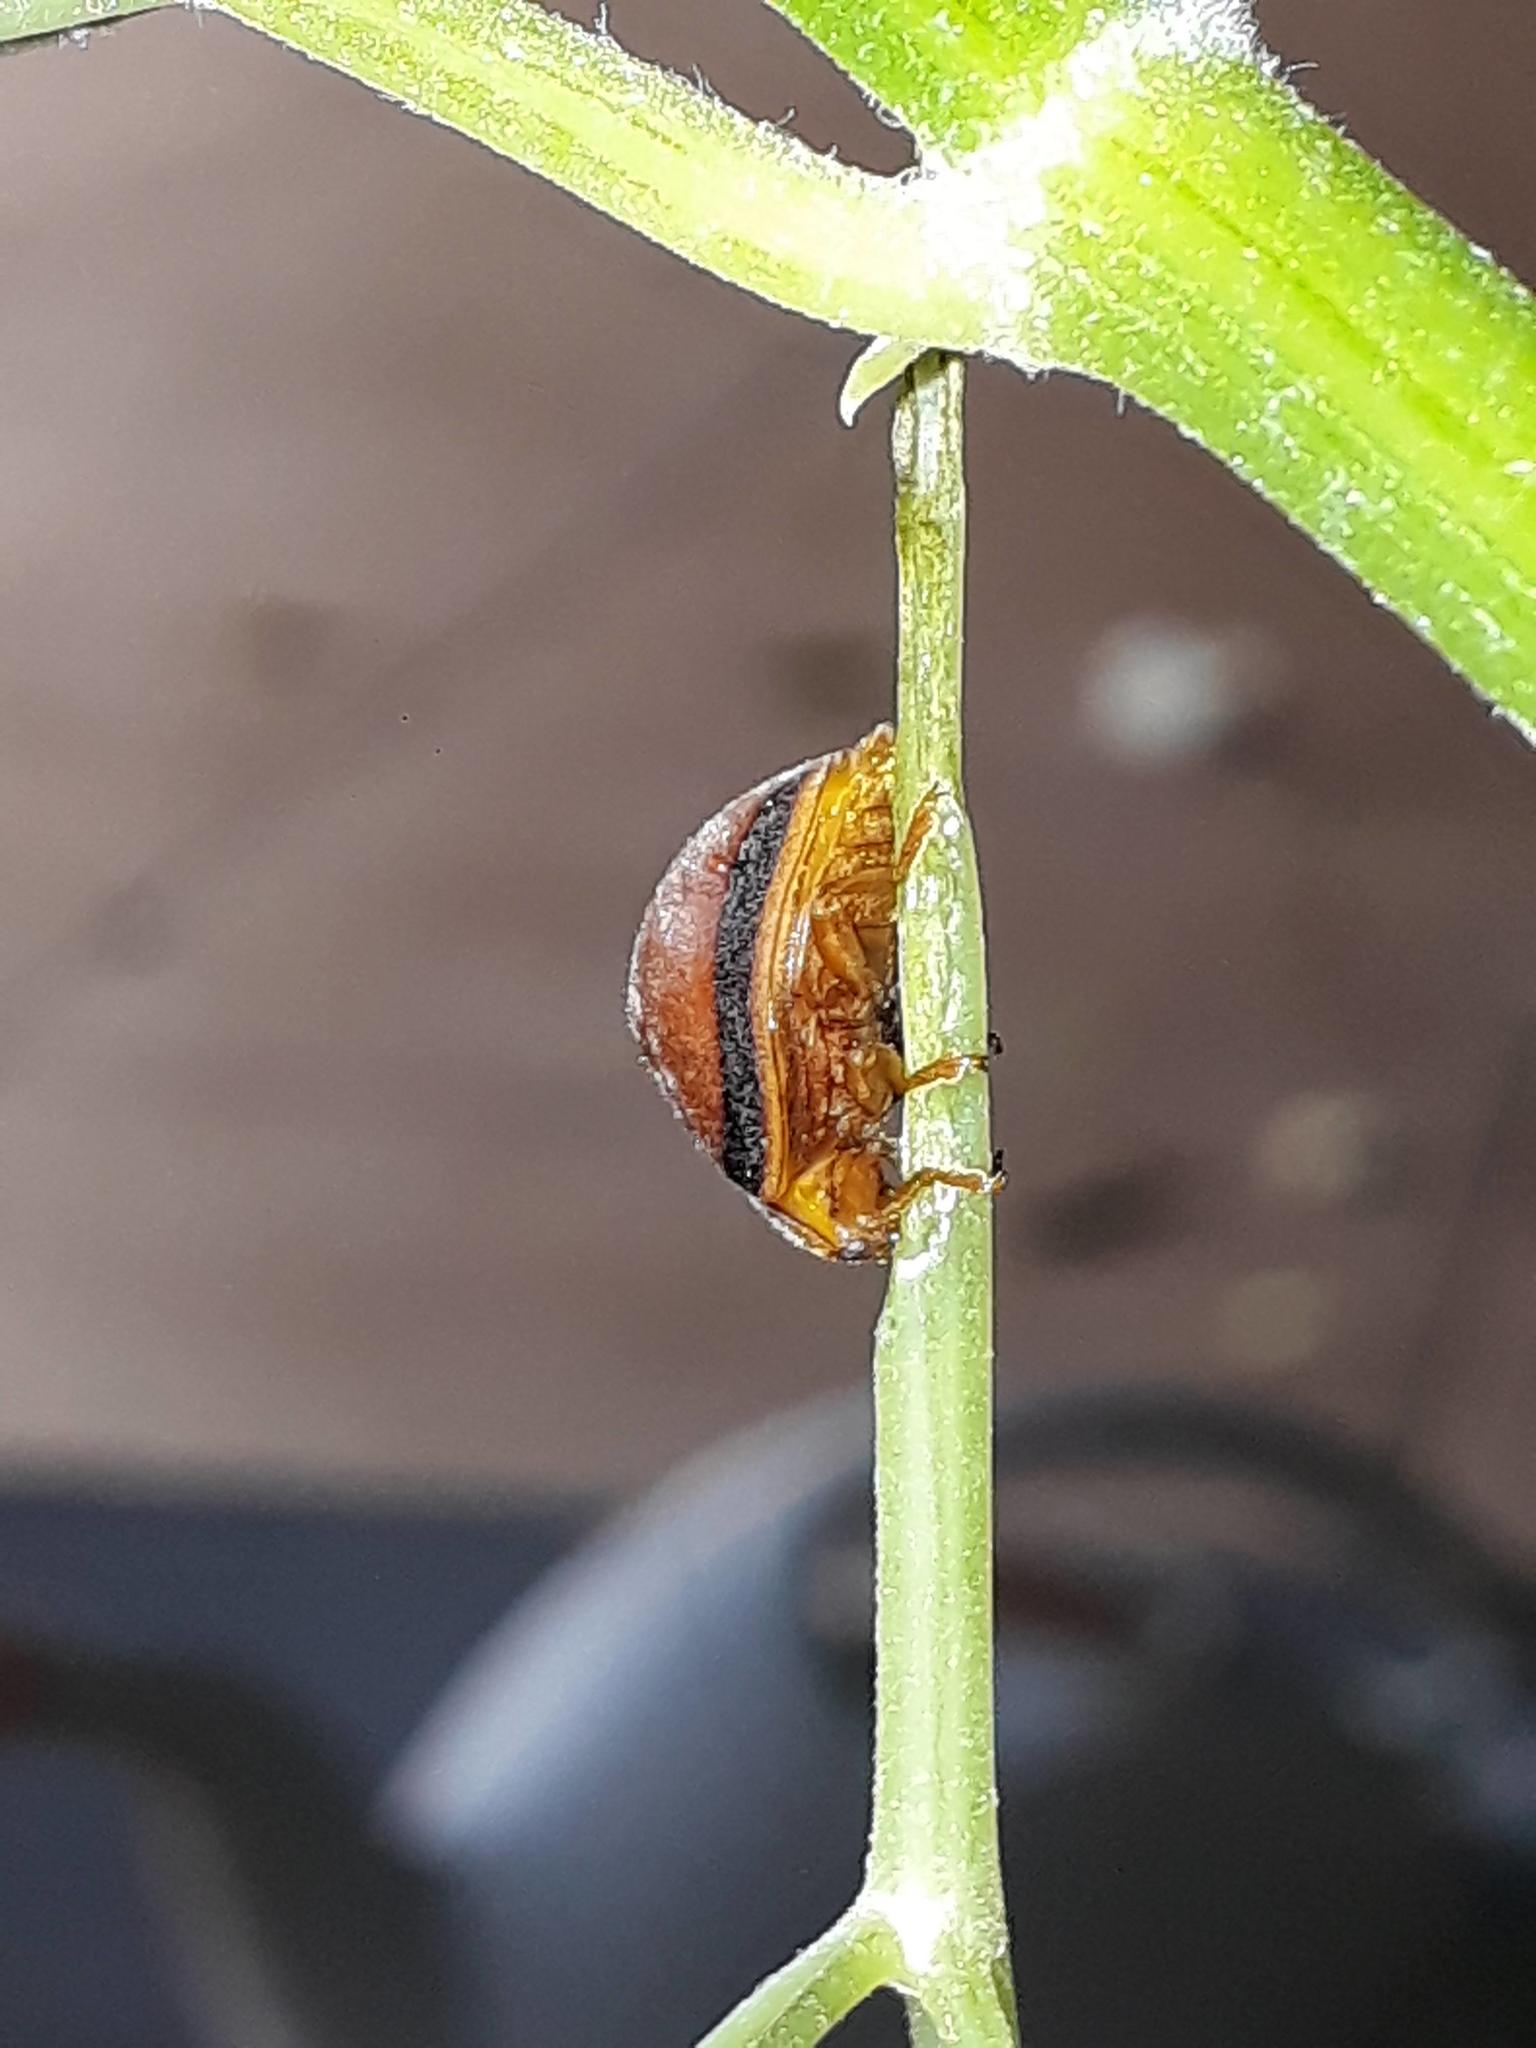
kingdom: Animalia
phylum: Arthropoda
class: Insecta
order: Coleoptera
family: Coccinellidae
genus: Epilachna
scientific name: Epilachna cacica
